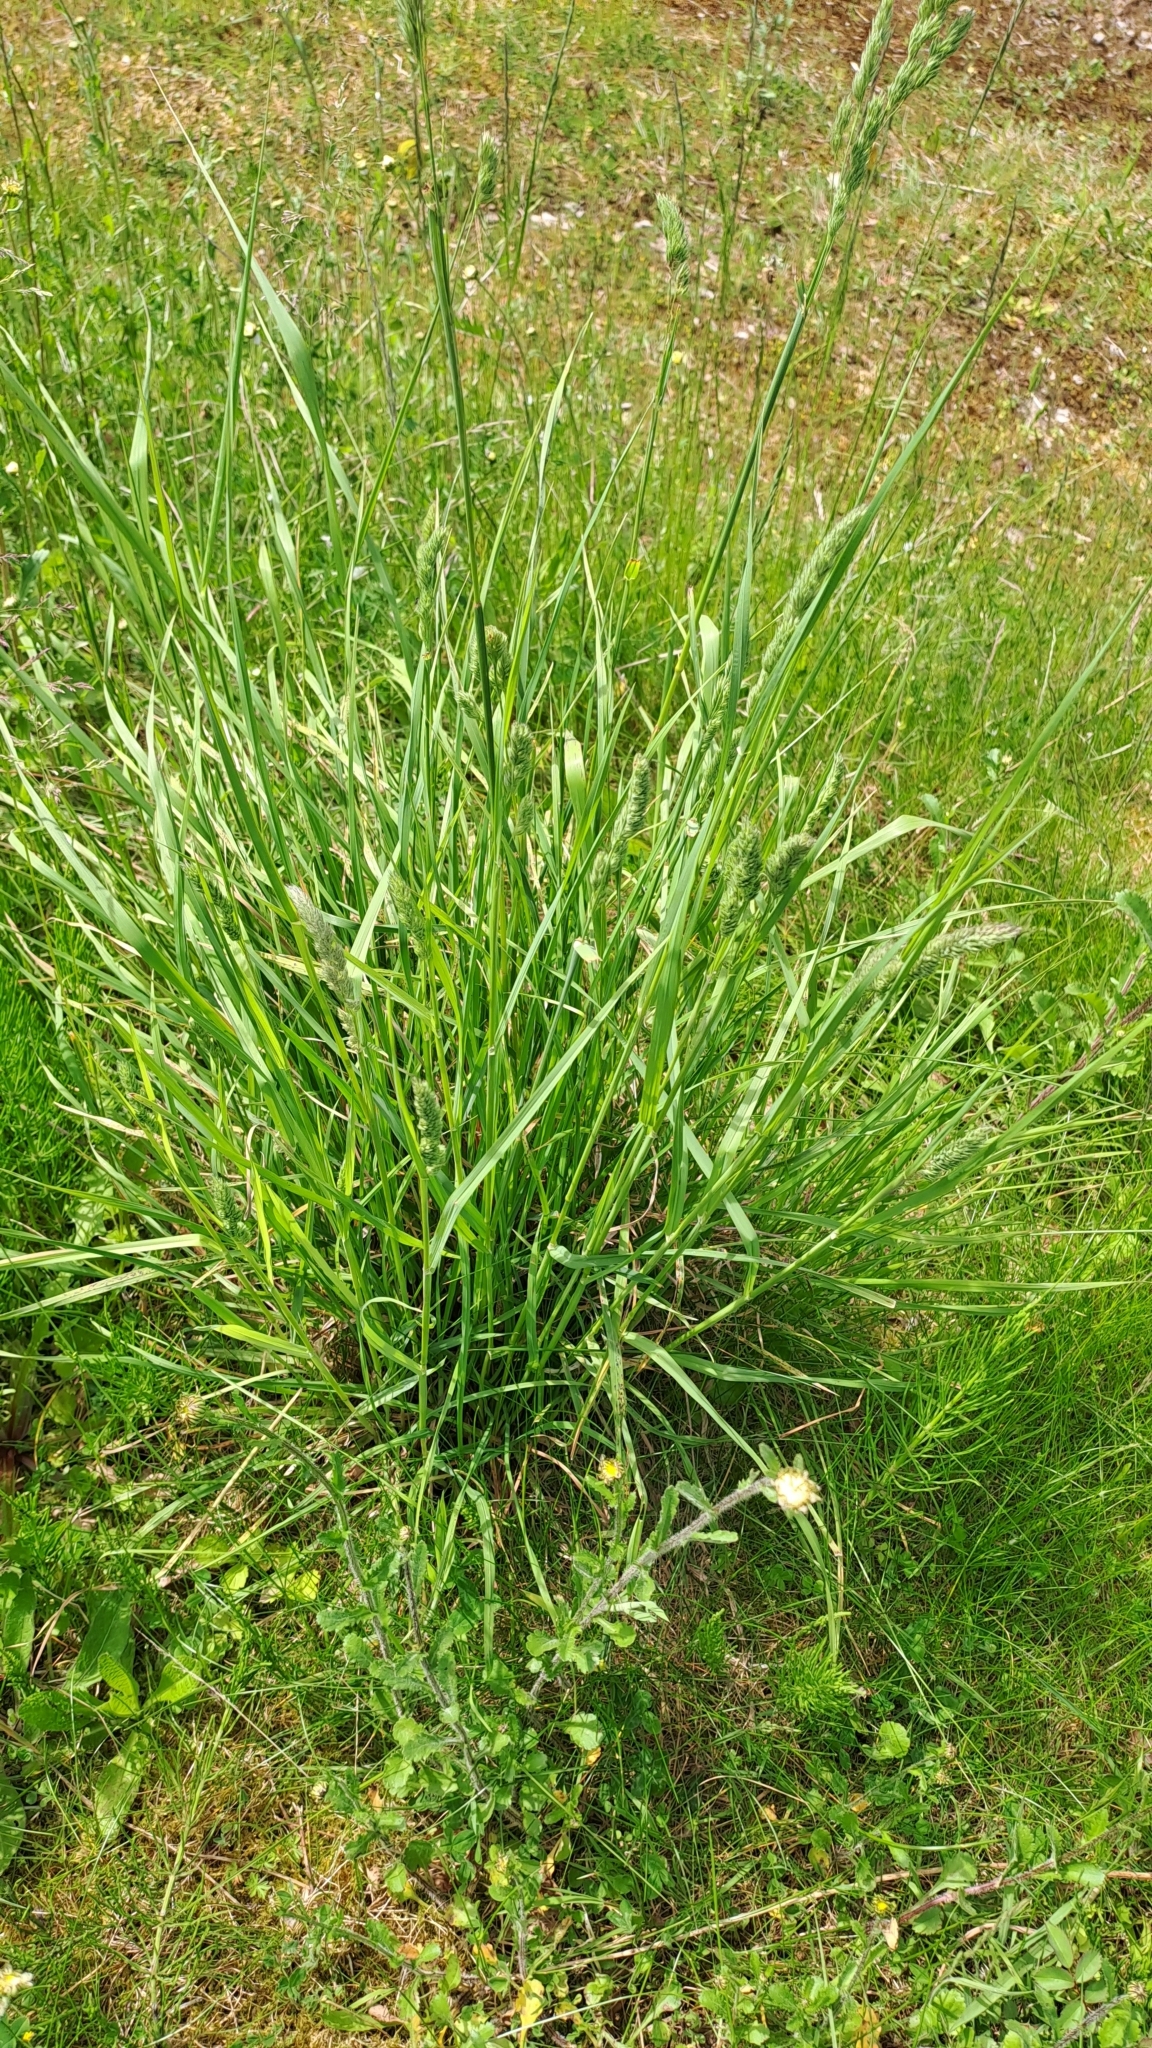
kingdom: Plantae
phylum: Tracheophyta
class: Liliopsida
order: Poales
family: Poaceae
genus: Dactylis
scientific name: Dactylis glomerata
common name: Orchardgrass
